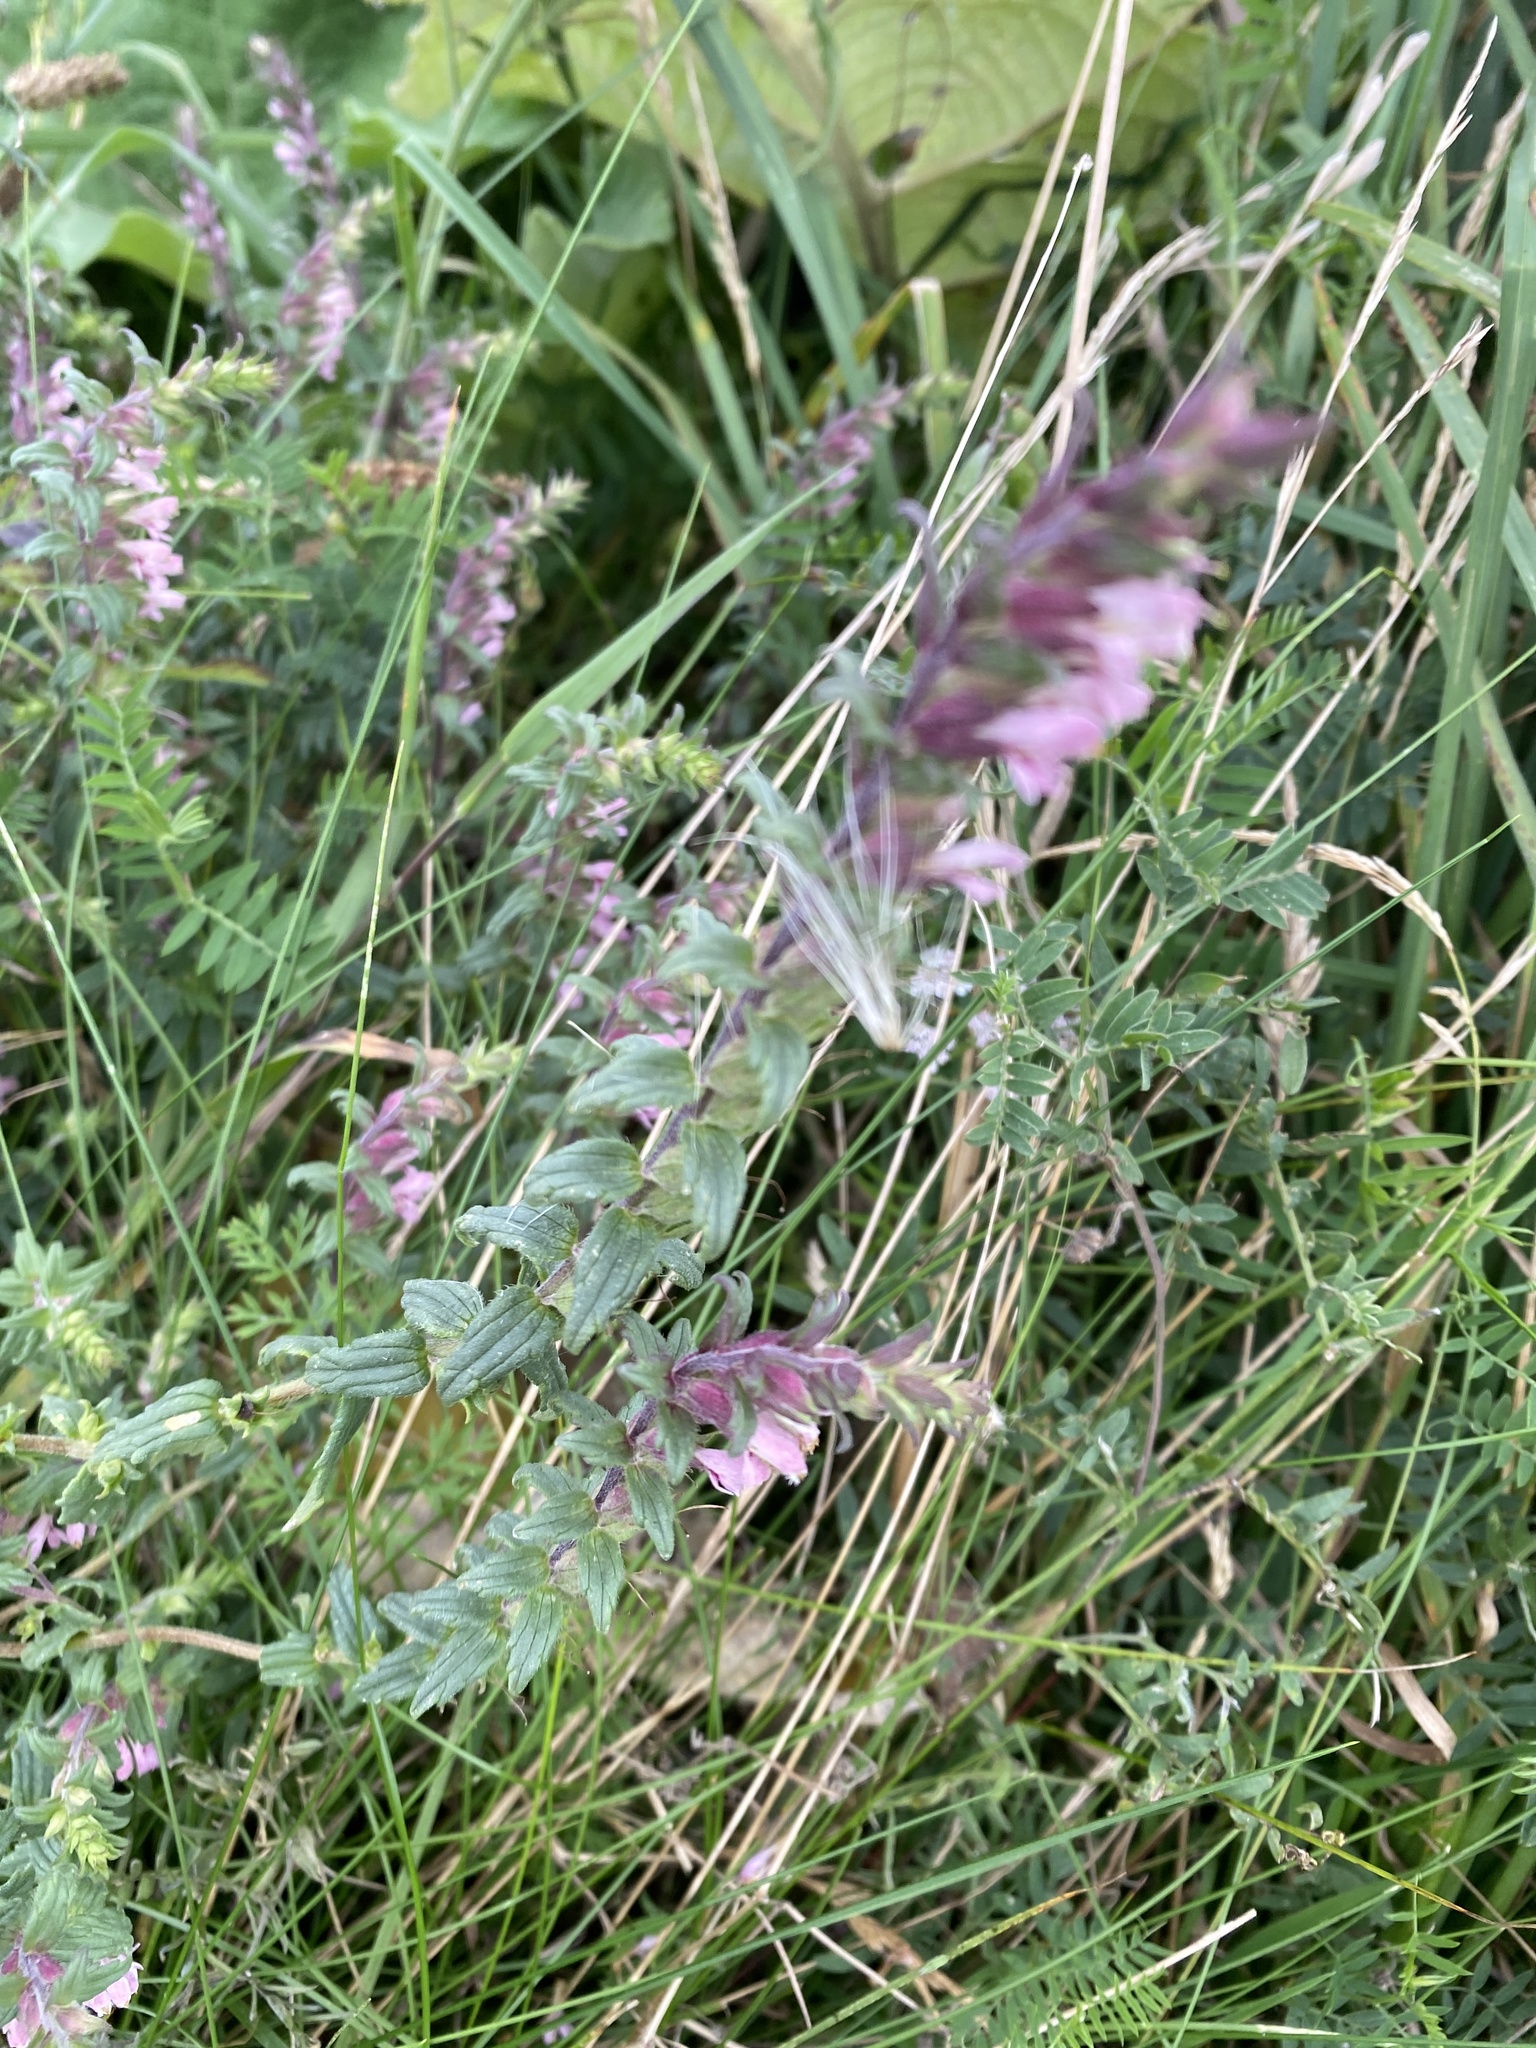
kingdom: Plantae
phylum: Tracheophyta
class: Magnoliopsida
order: Lamiales
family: Orobanchaceae
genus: Odontites
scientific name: Odontites vernus
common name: Red bartsia
